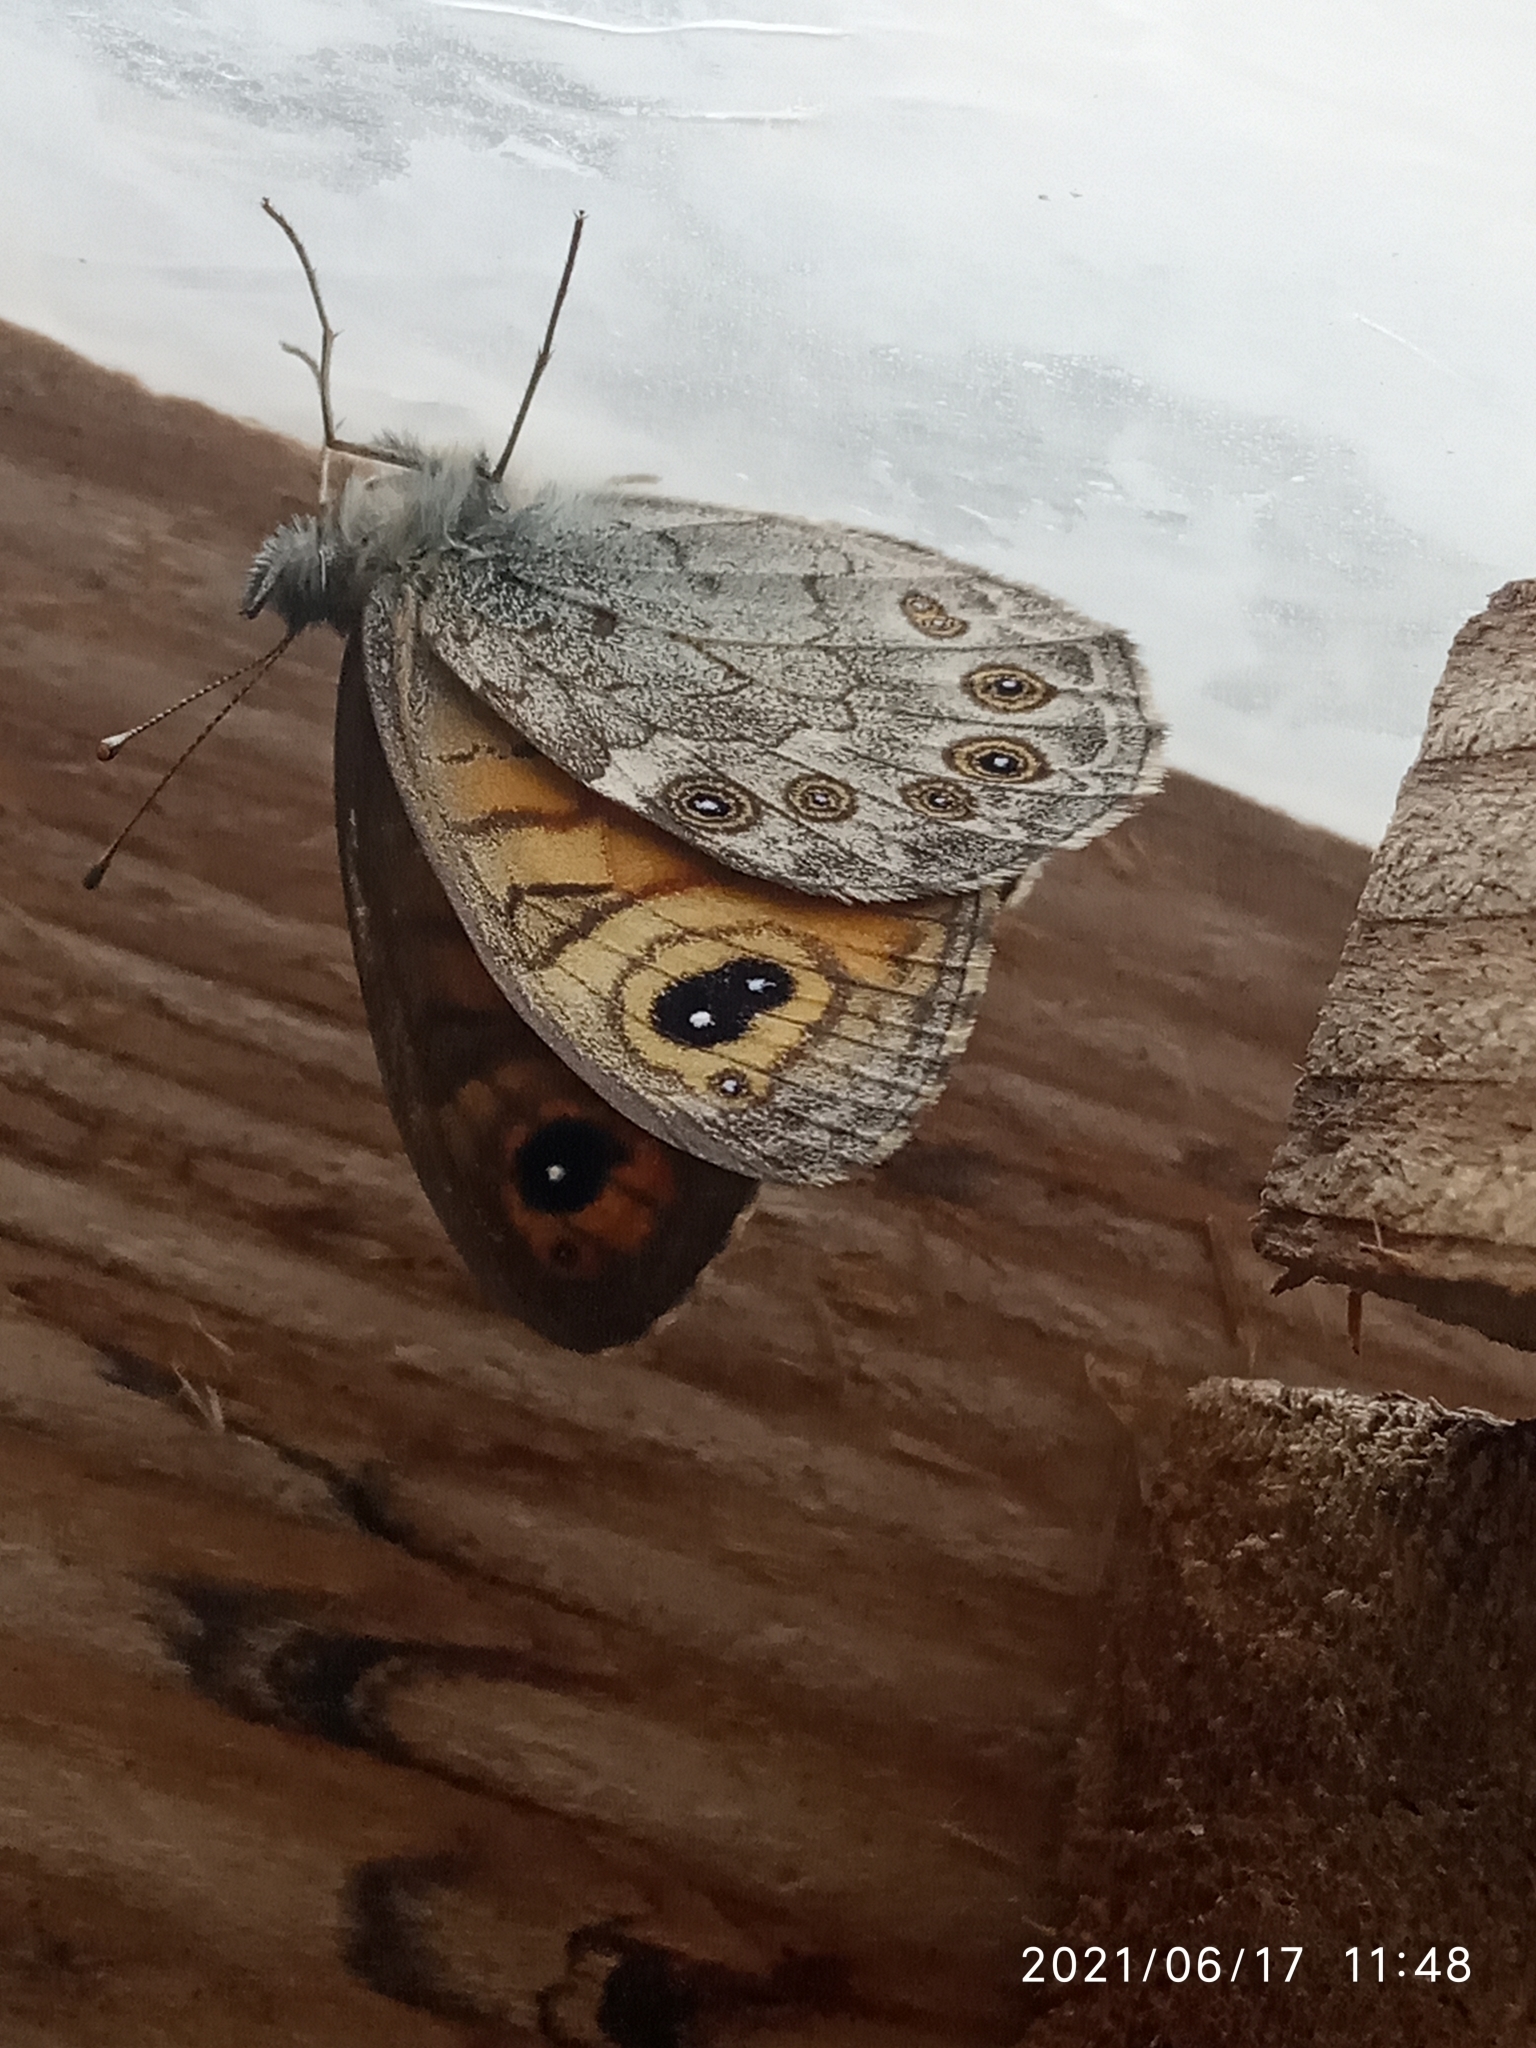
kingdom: Animalia
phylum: Arthropoda
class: Insecta
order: Lepidoptera
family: Nymphalidae
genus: Pararge
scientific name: Pararge Lasiommata maera
